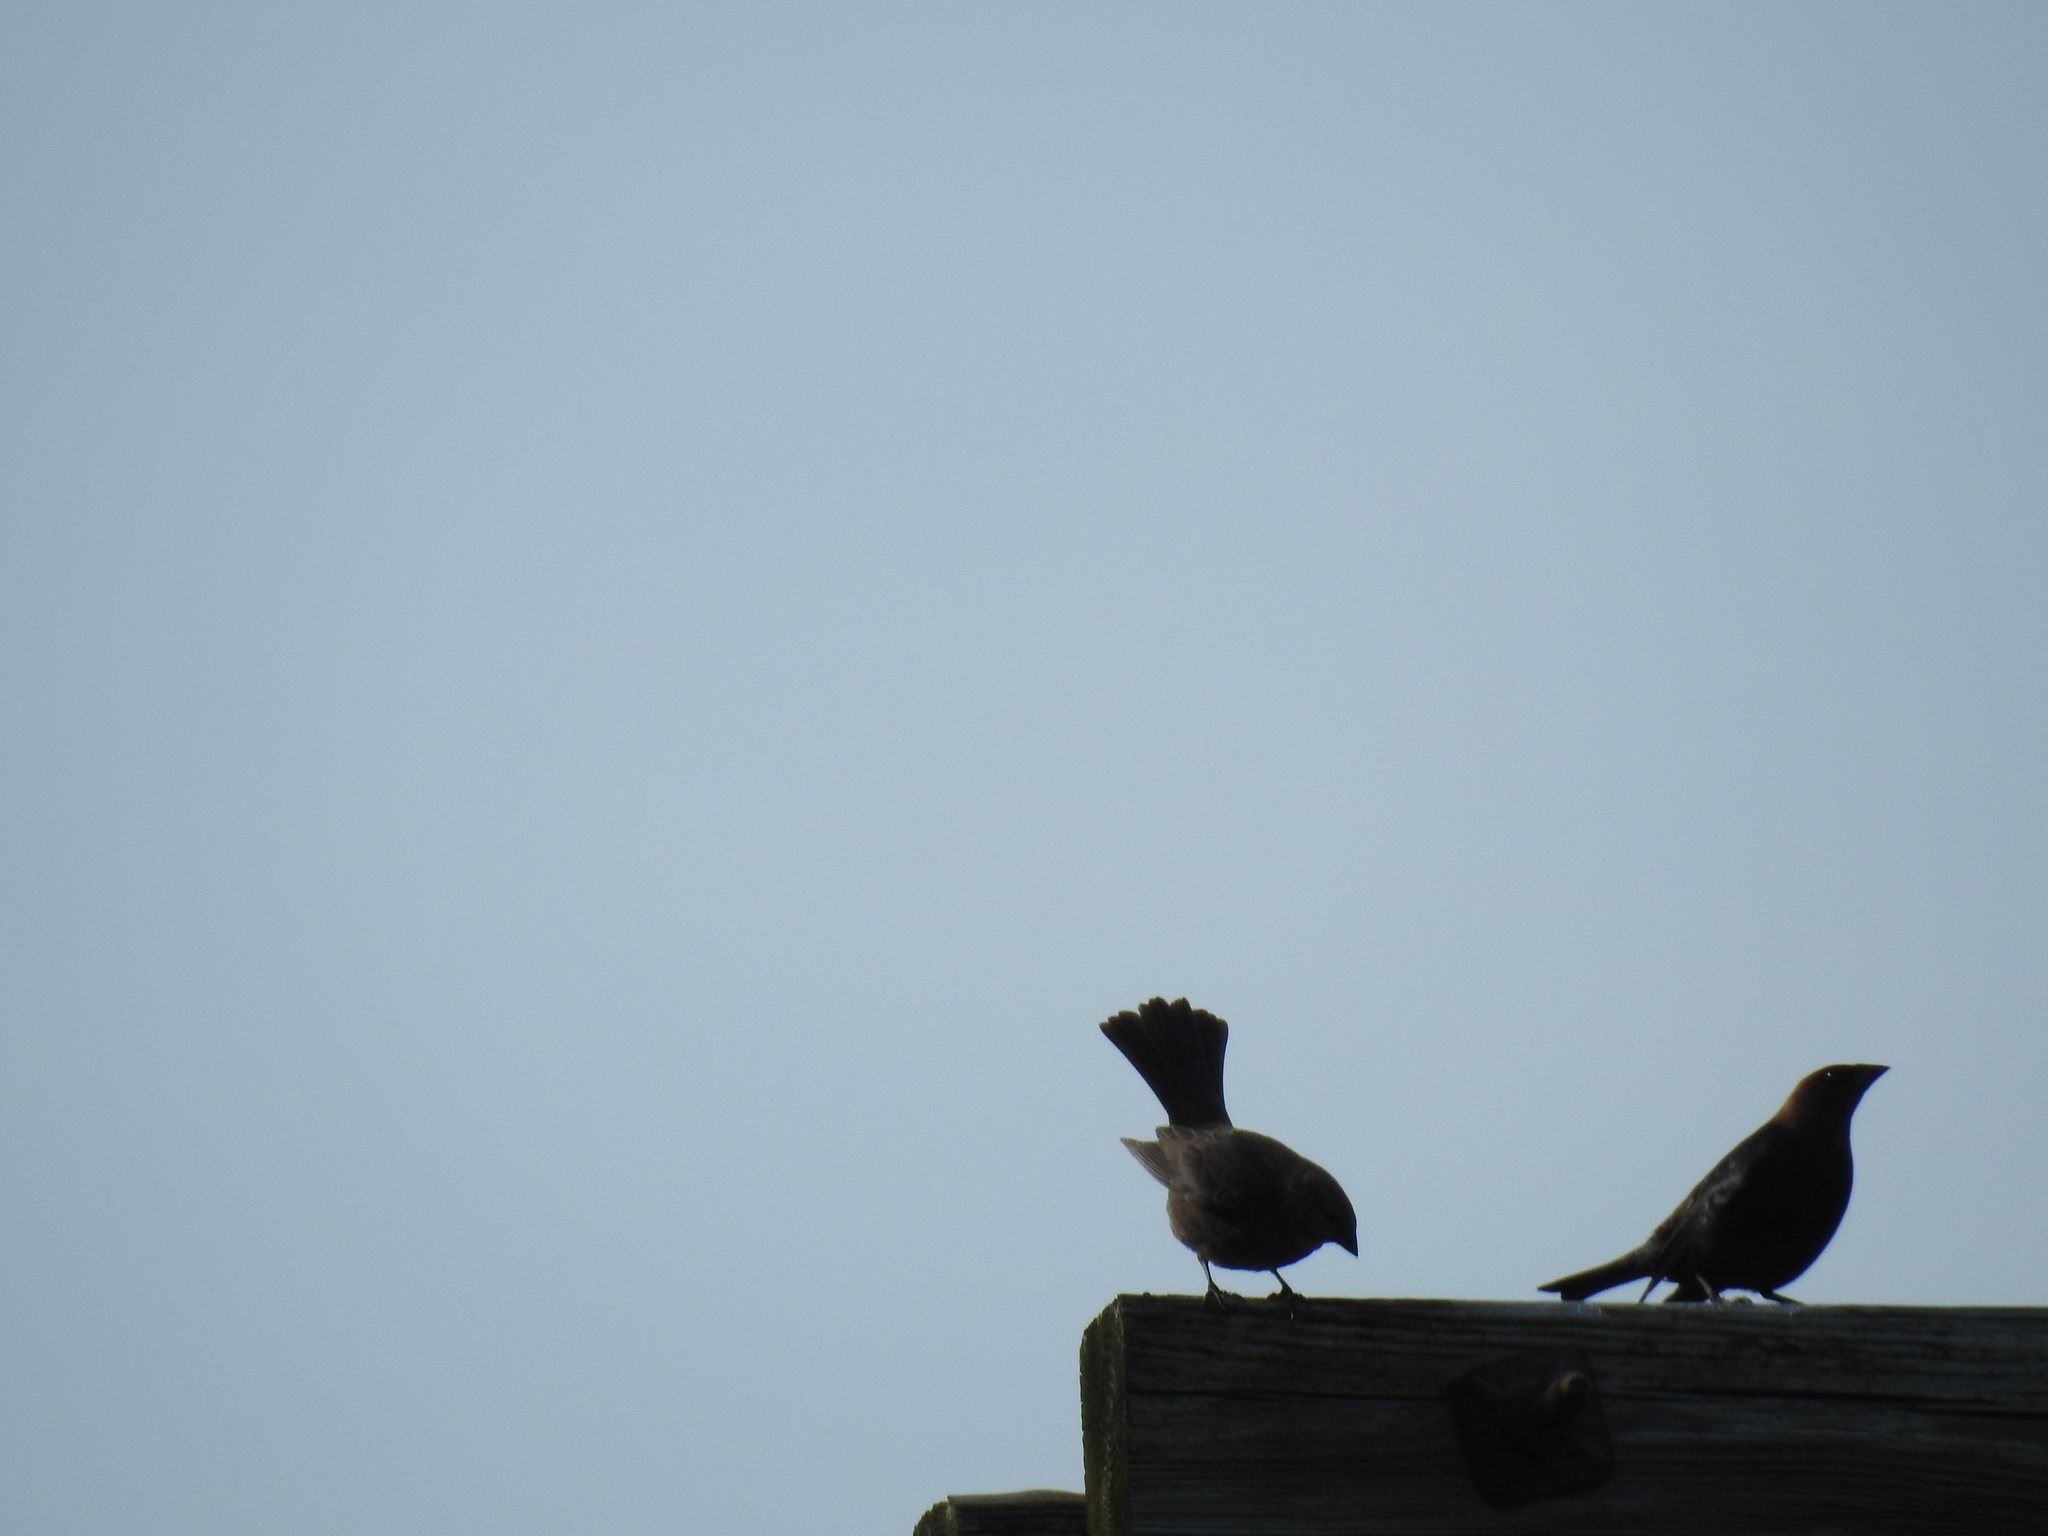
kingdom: Animalia
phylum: Chordata
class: Aves
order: Passeriformes
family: Icteridae
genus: Molothrus
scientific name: Molothrus ater
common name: Brown-headed cowbird
